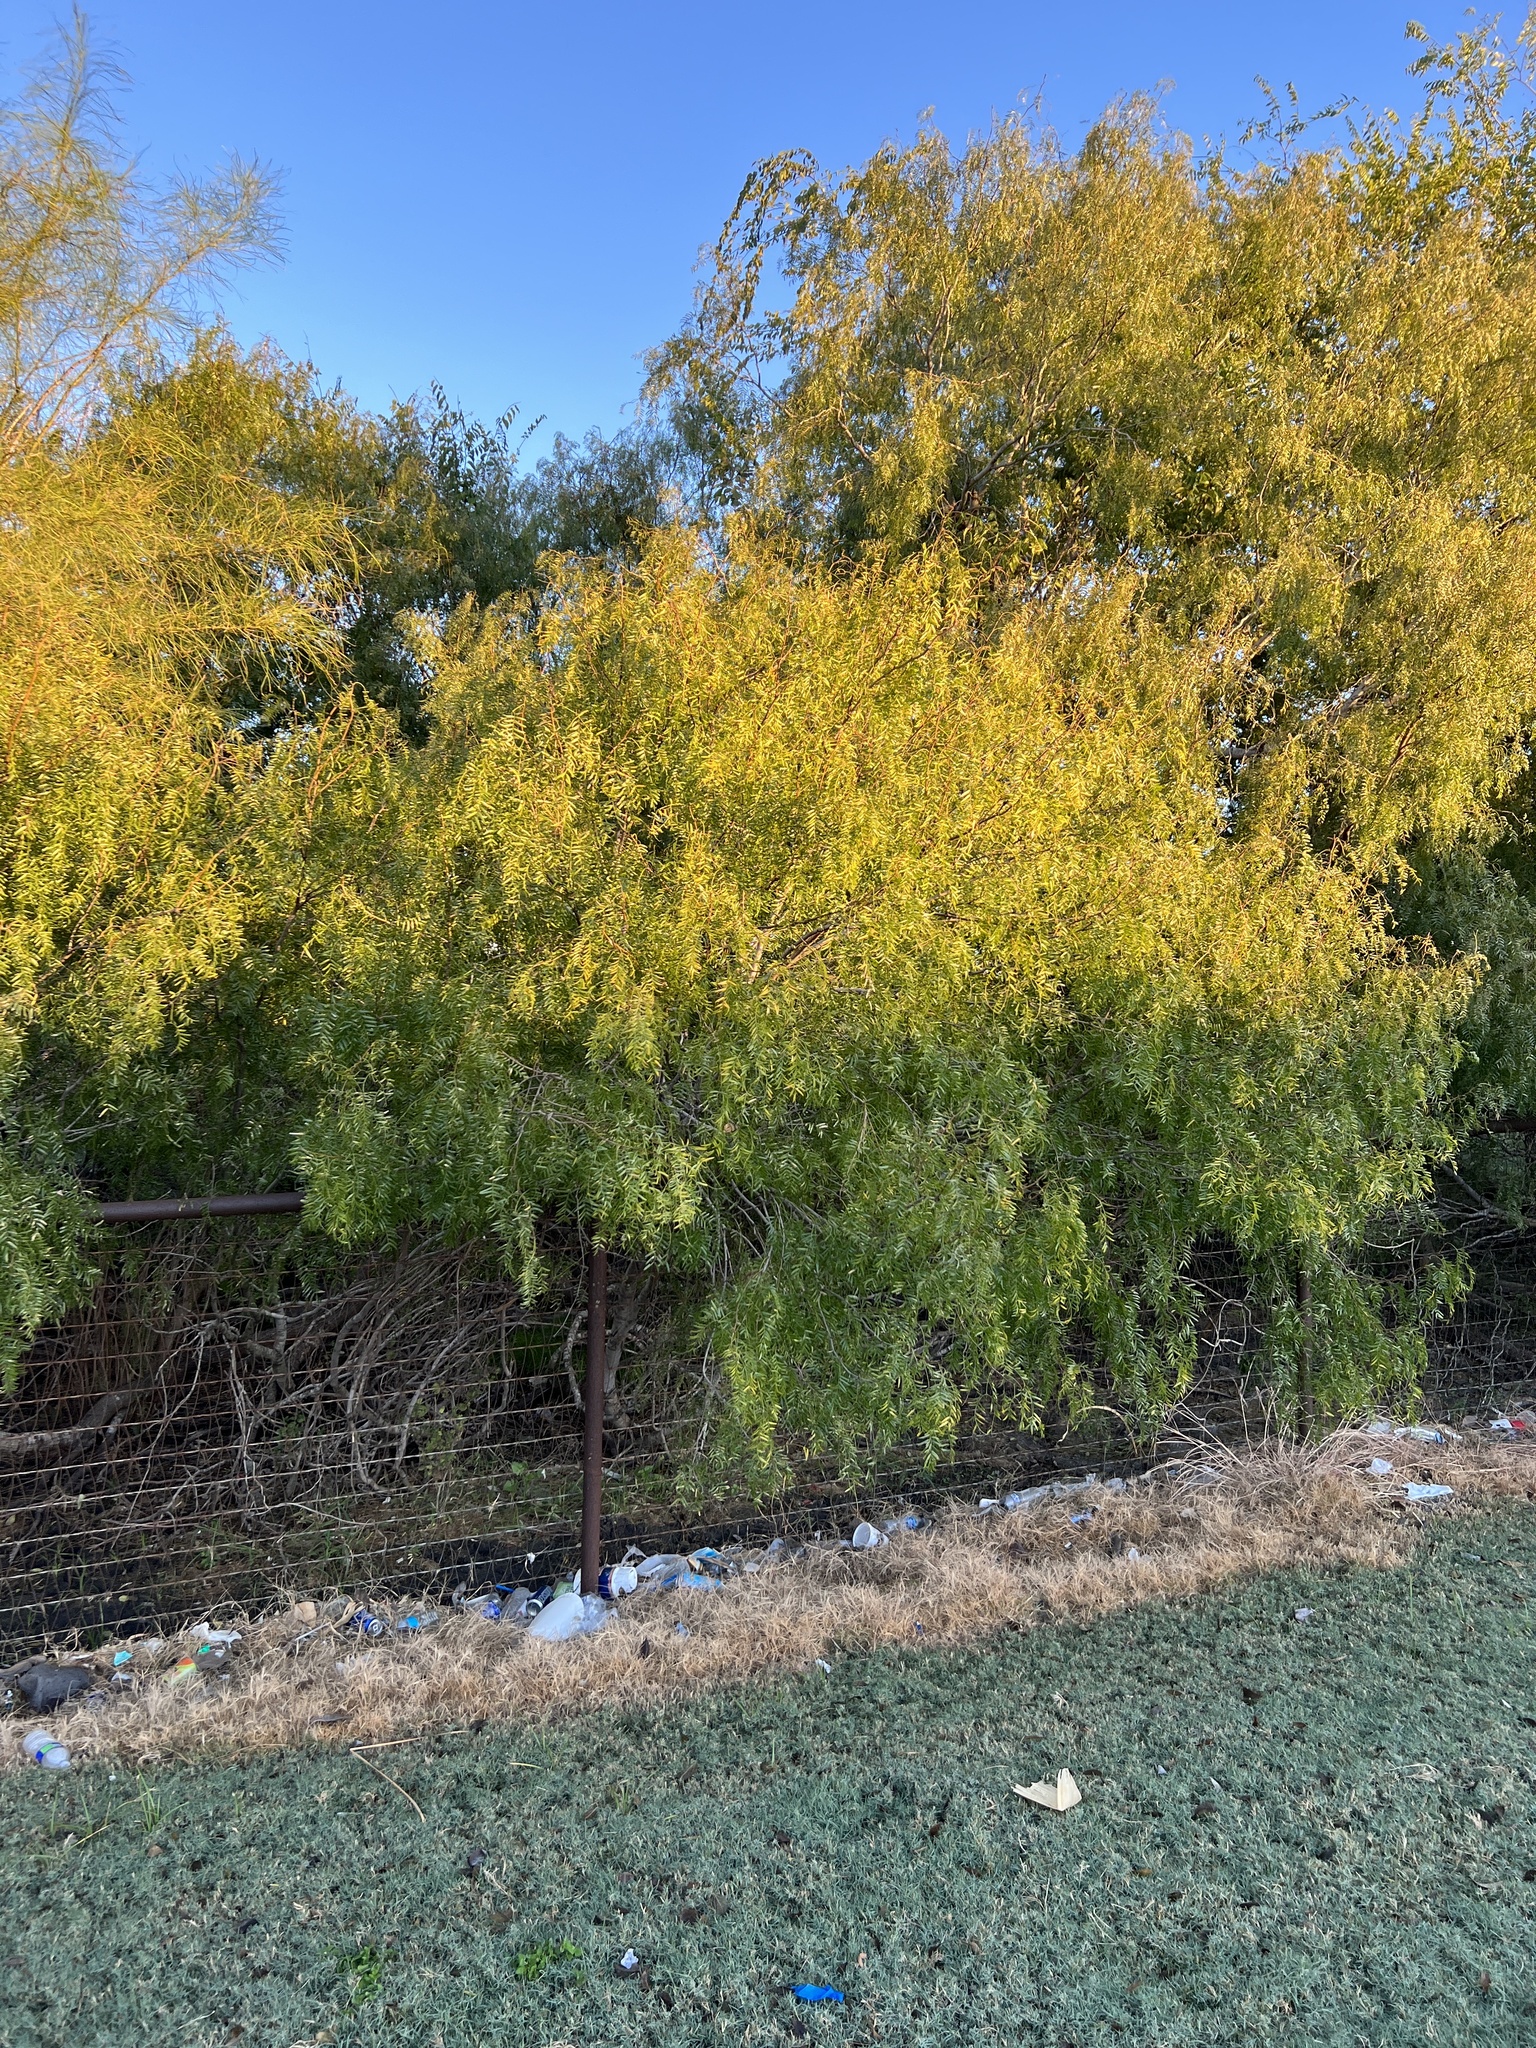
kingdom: Plantae
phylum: Tracheophyta
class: Magnoliopsida
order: Fabales
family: Fabaceae
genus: Prosopis
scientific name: Prosopis glandulosa
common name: Honey mesquite
